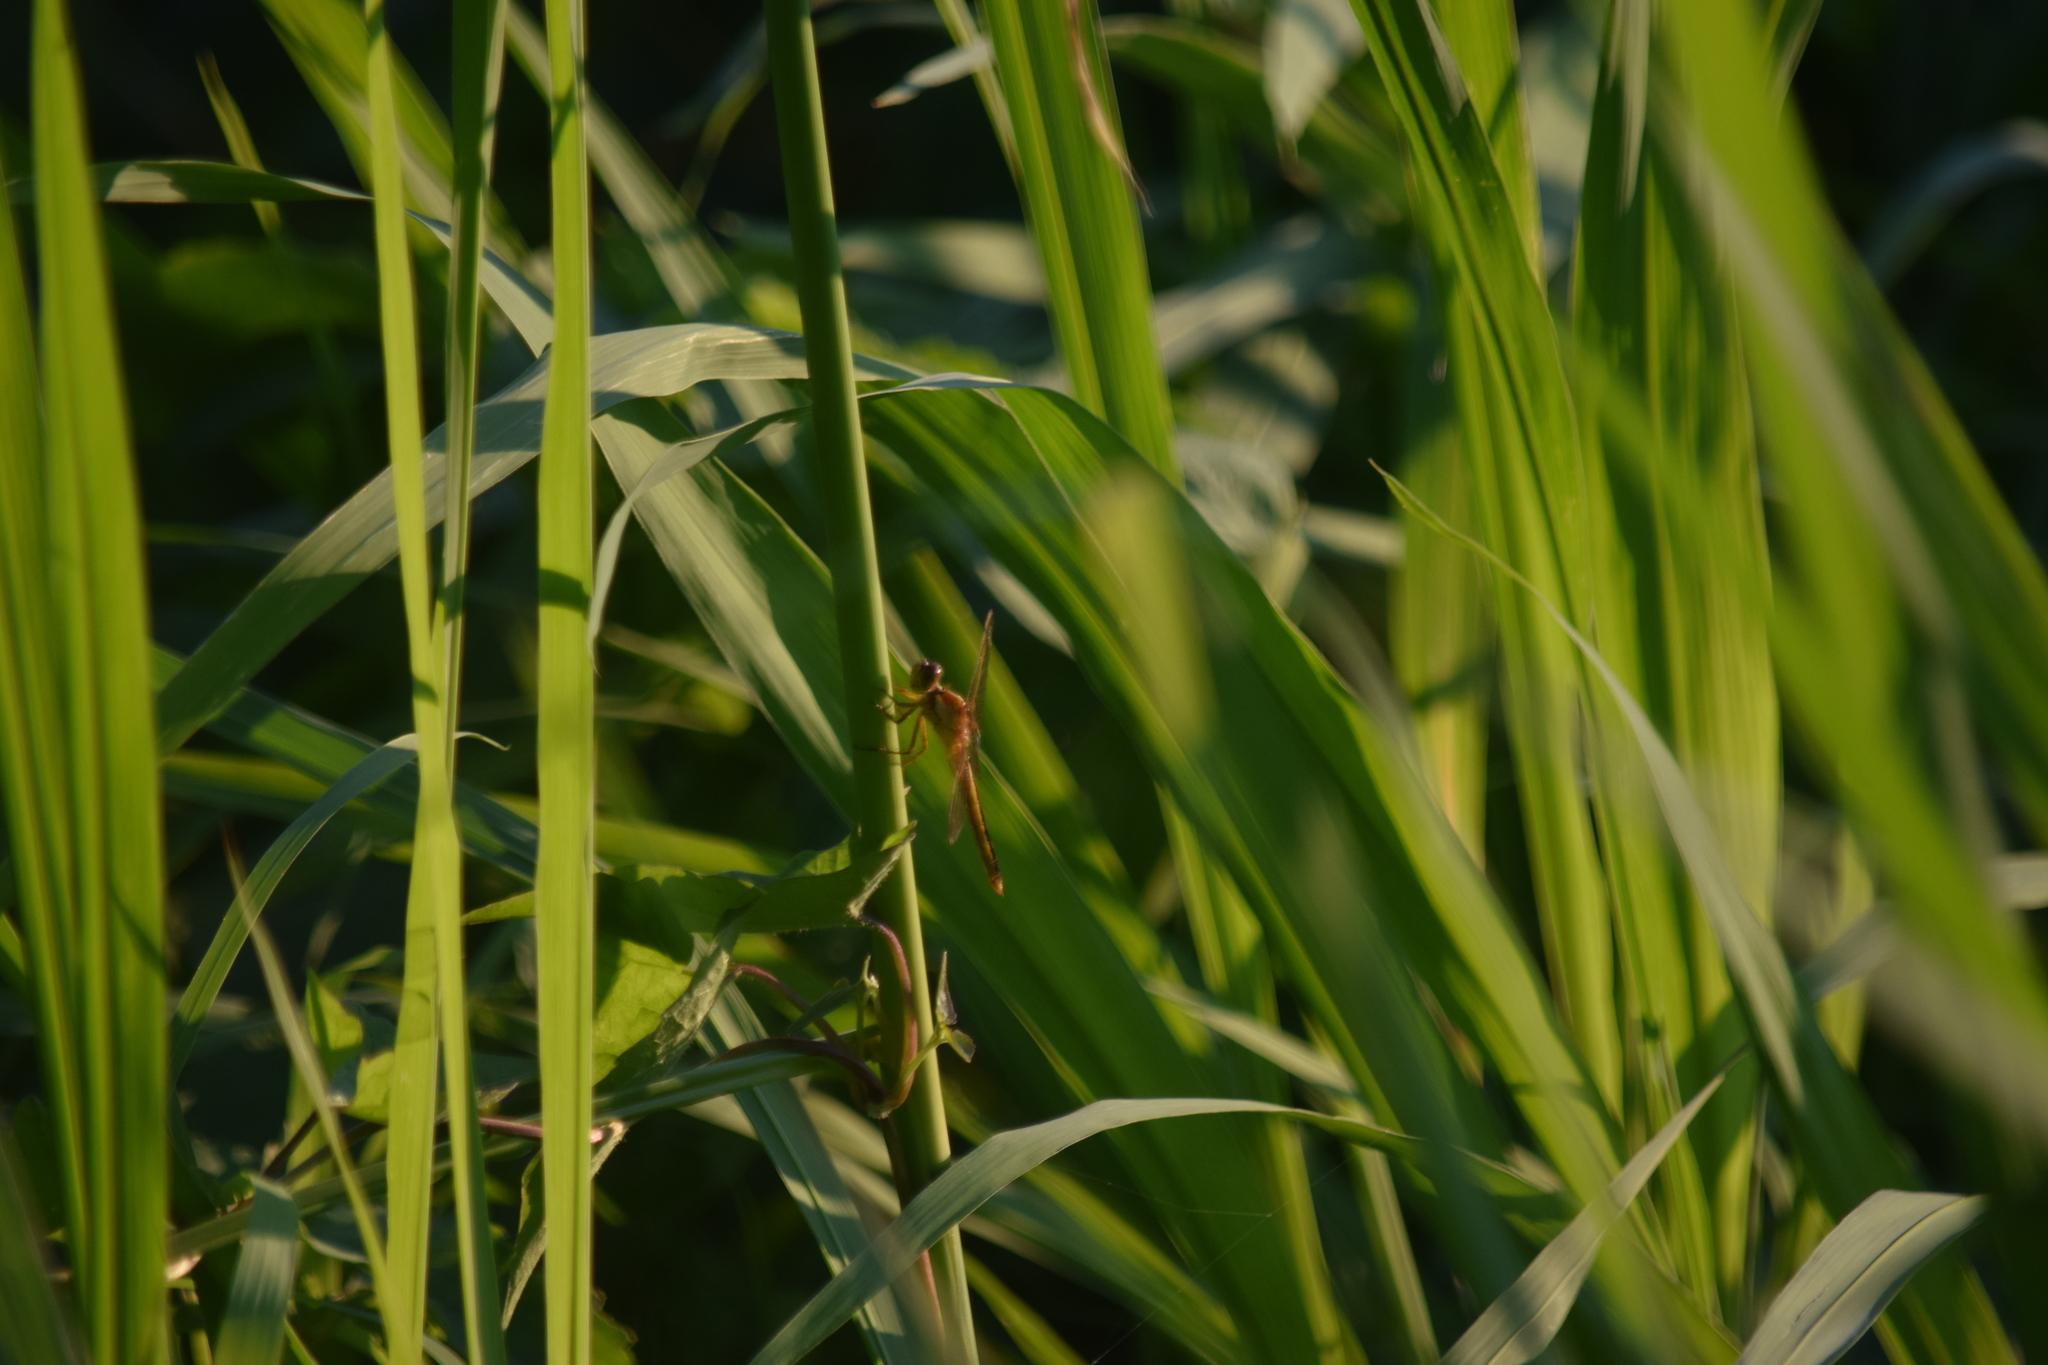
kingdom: Animalia
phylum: Arthropoda
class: Insecta
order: Odonata
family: Libellulidae
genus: Libellula
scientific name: Libellula needhami
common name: Needham's skimmer
